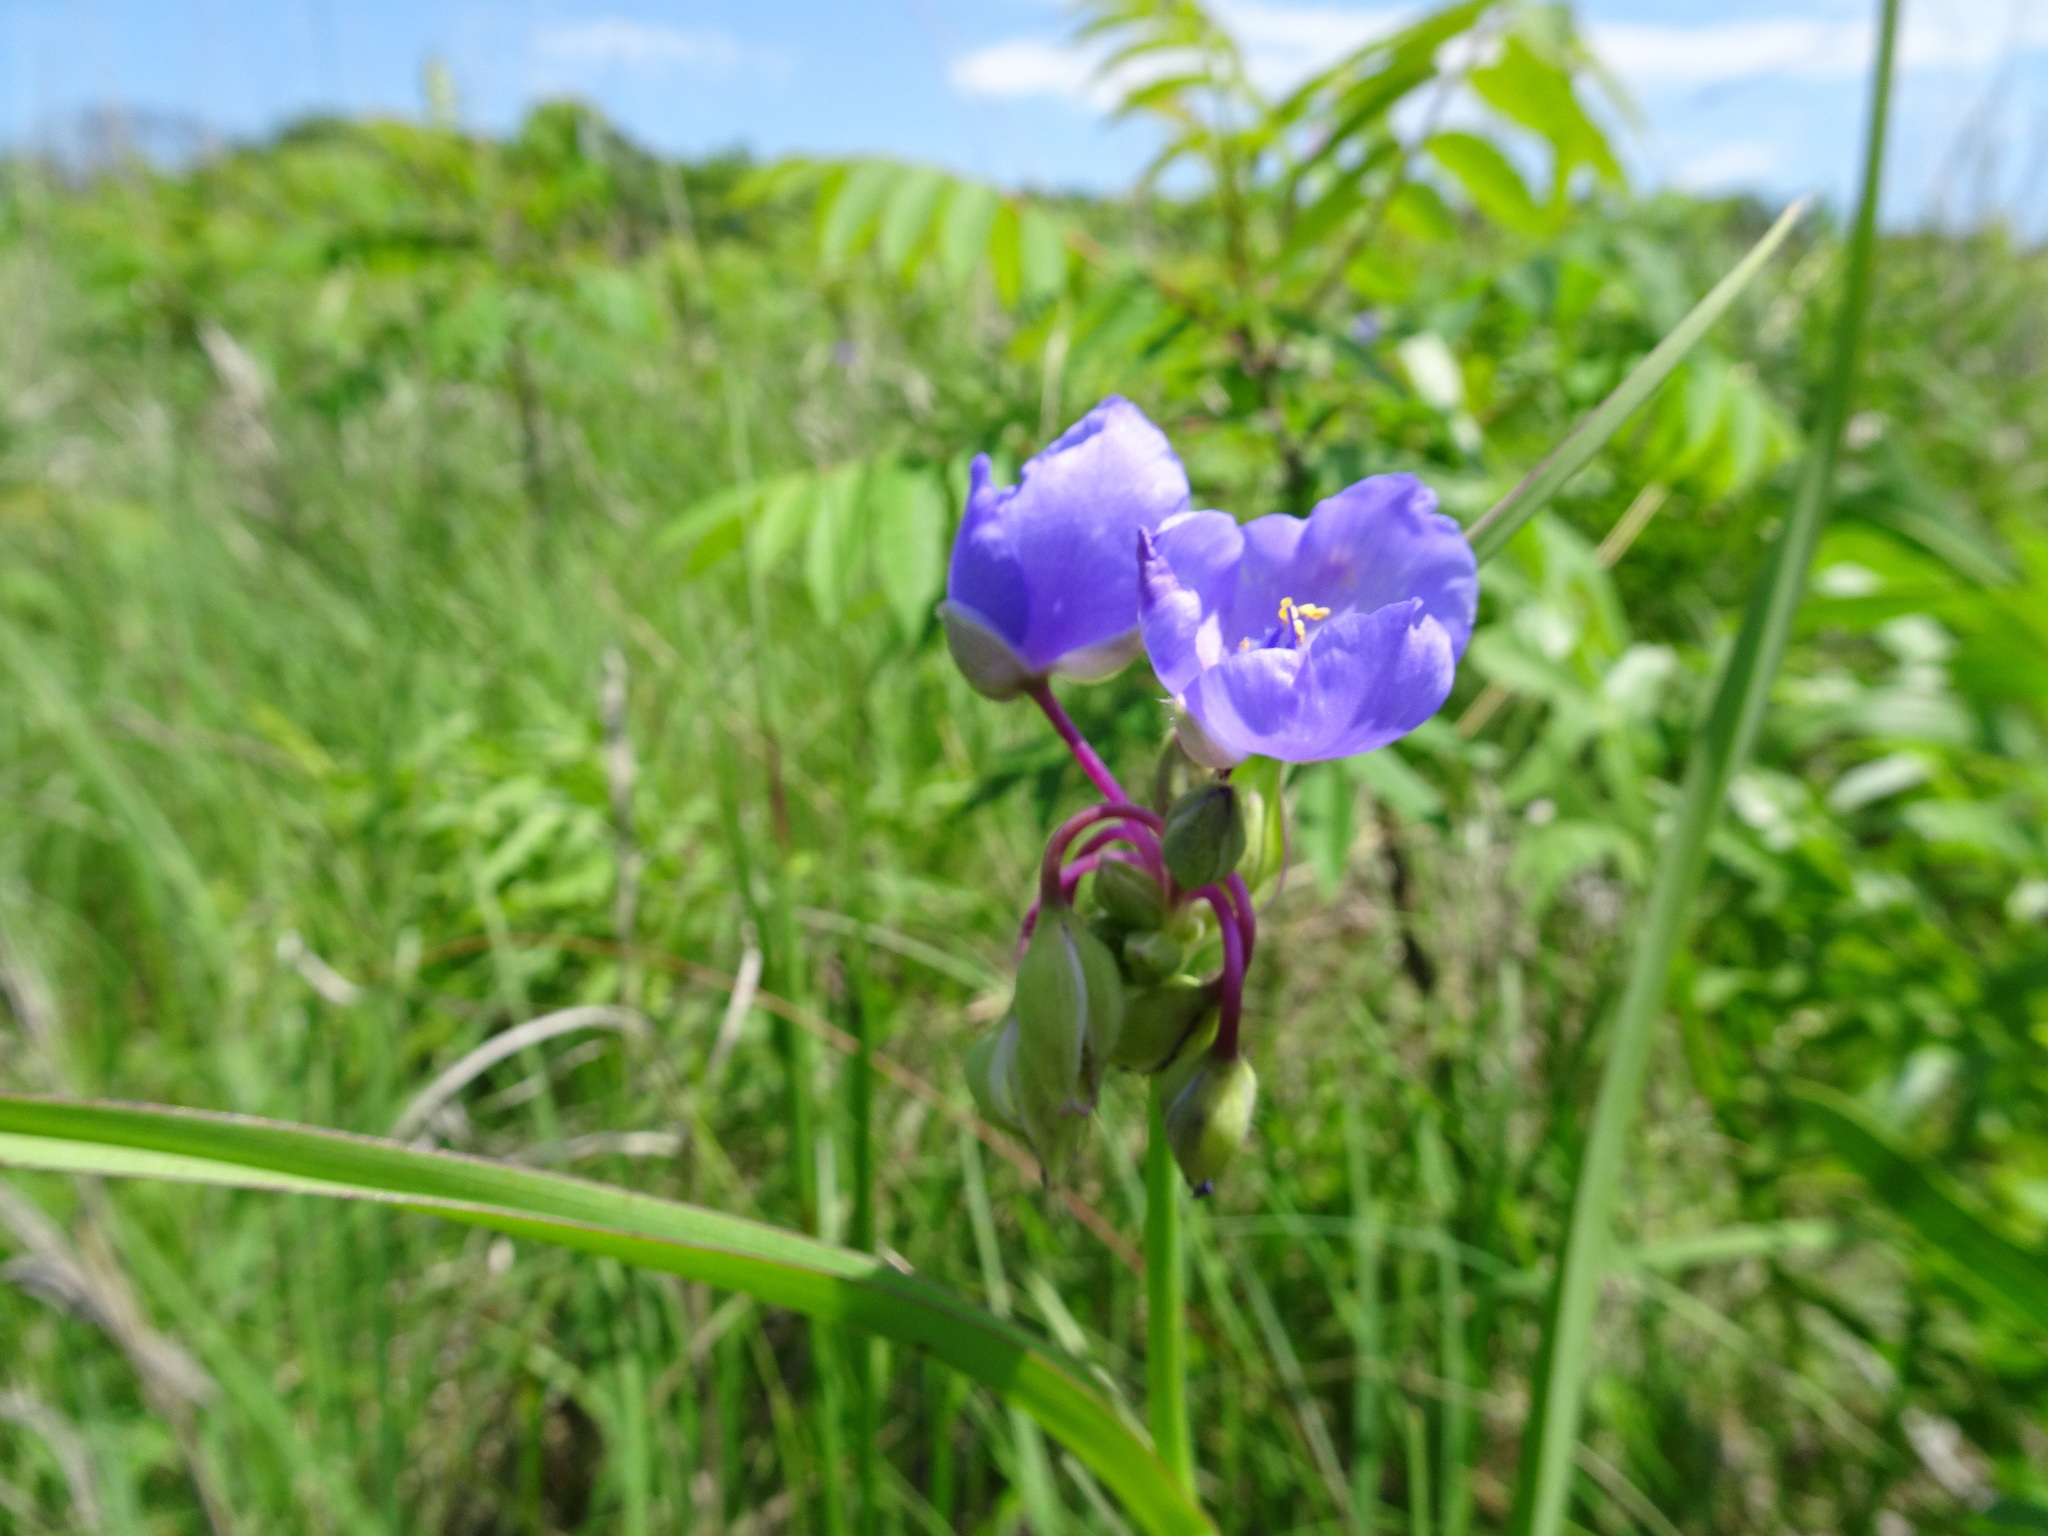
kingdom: Plantae
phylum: Tracheophyta
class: Liliopsida
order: Commelinales
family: Commelinaceae
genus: Tradescantia
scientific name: Tradescantia ohiensis
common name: Ohio spiderwort
